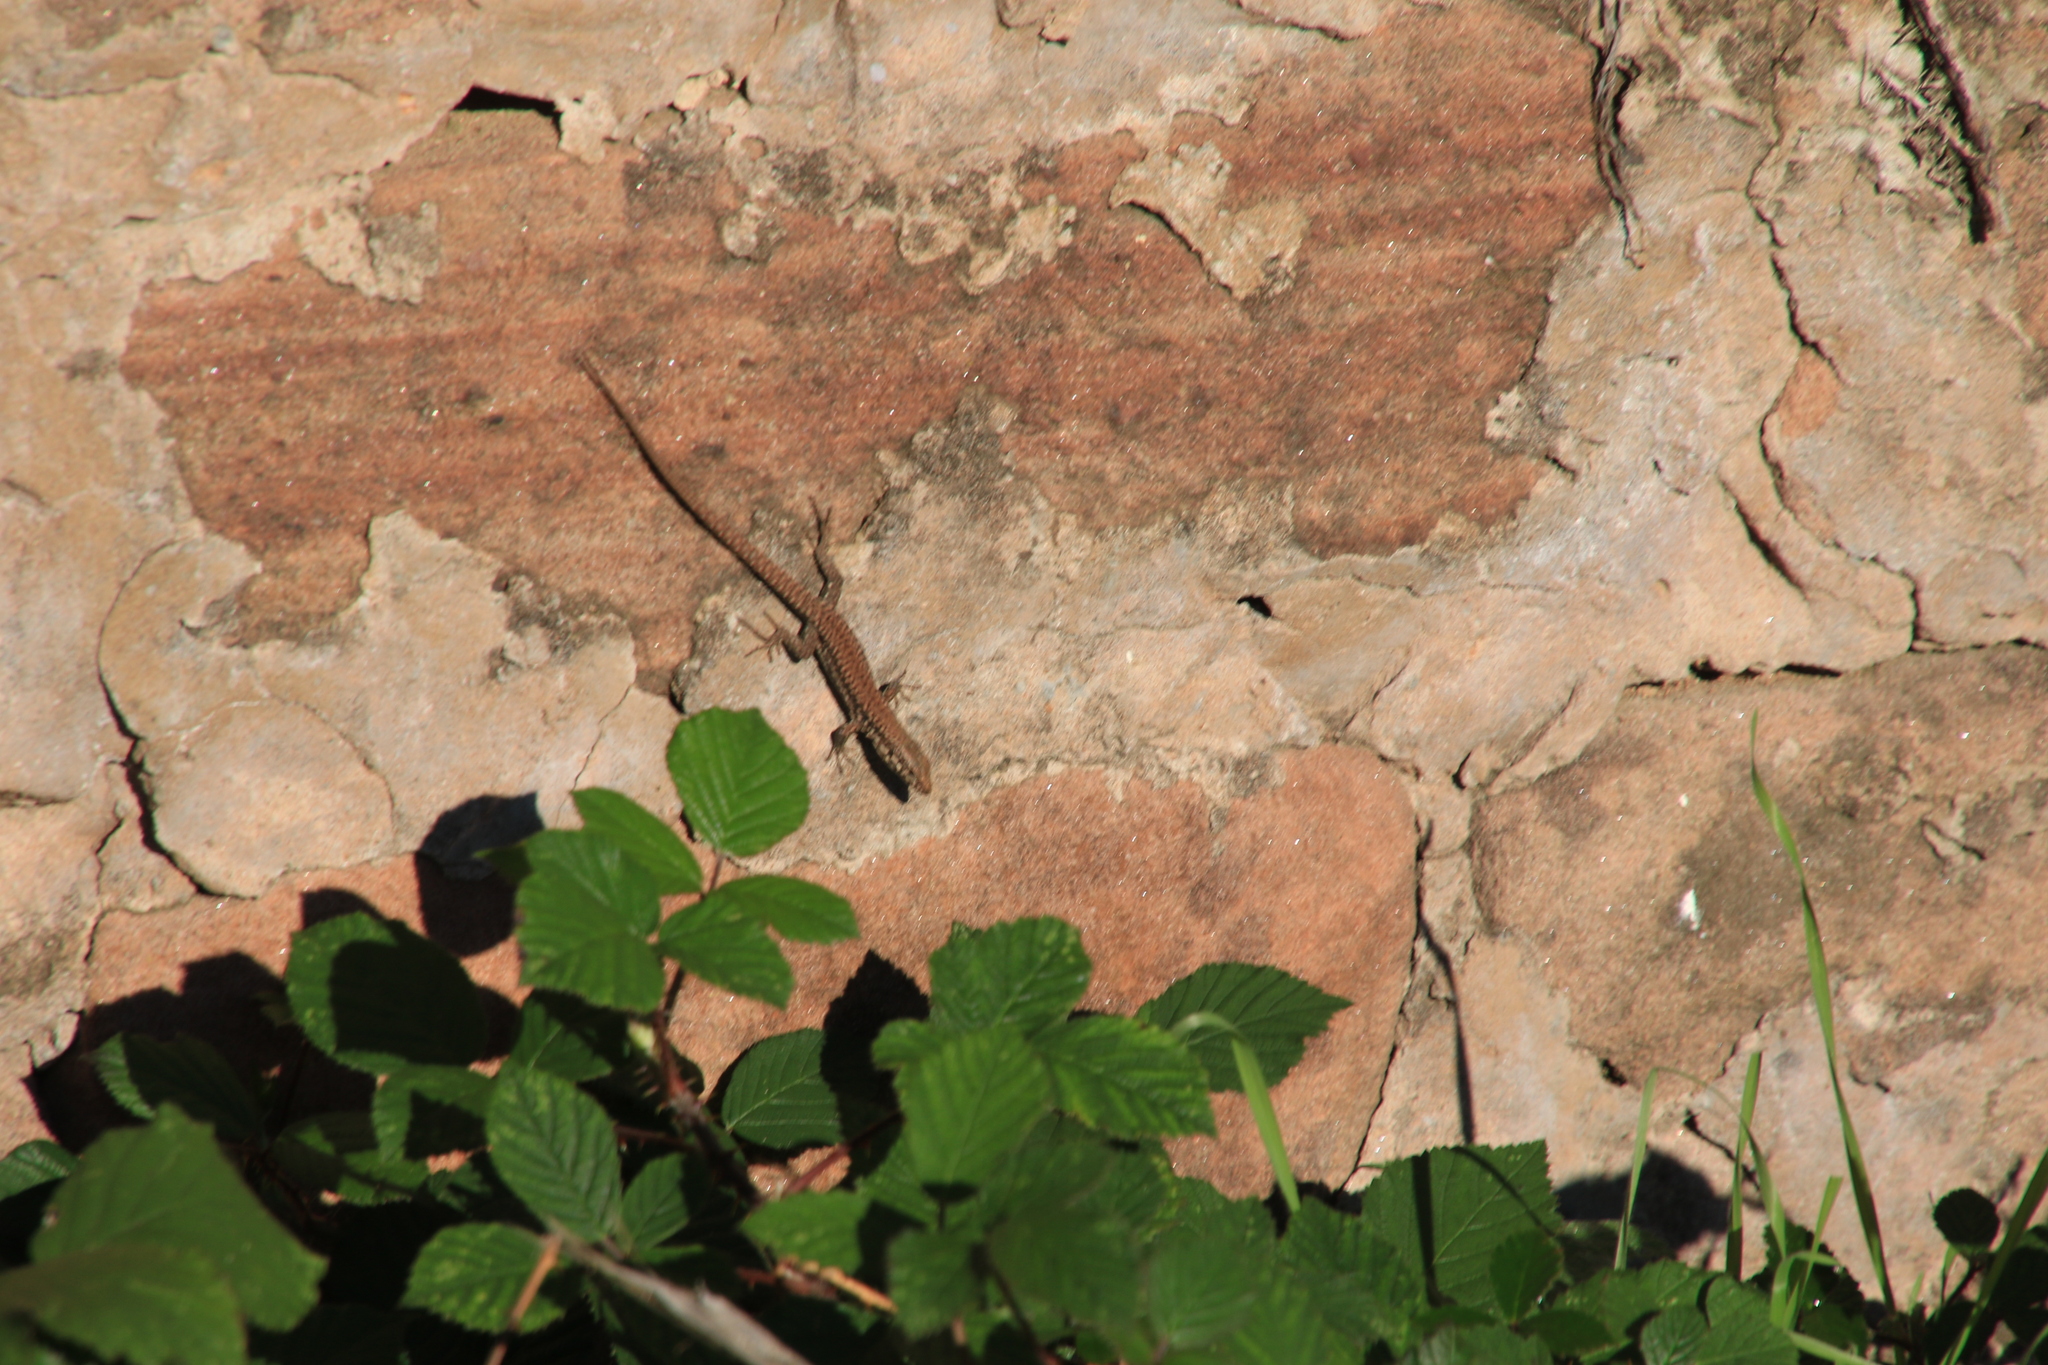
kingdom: Animalia
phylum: Chordata
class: Squamata
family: Lacertidae
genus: Podarcis
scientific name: Podarcis muralis
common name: Common wall lizard
